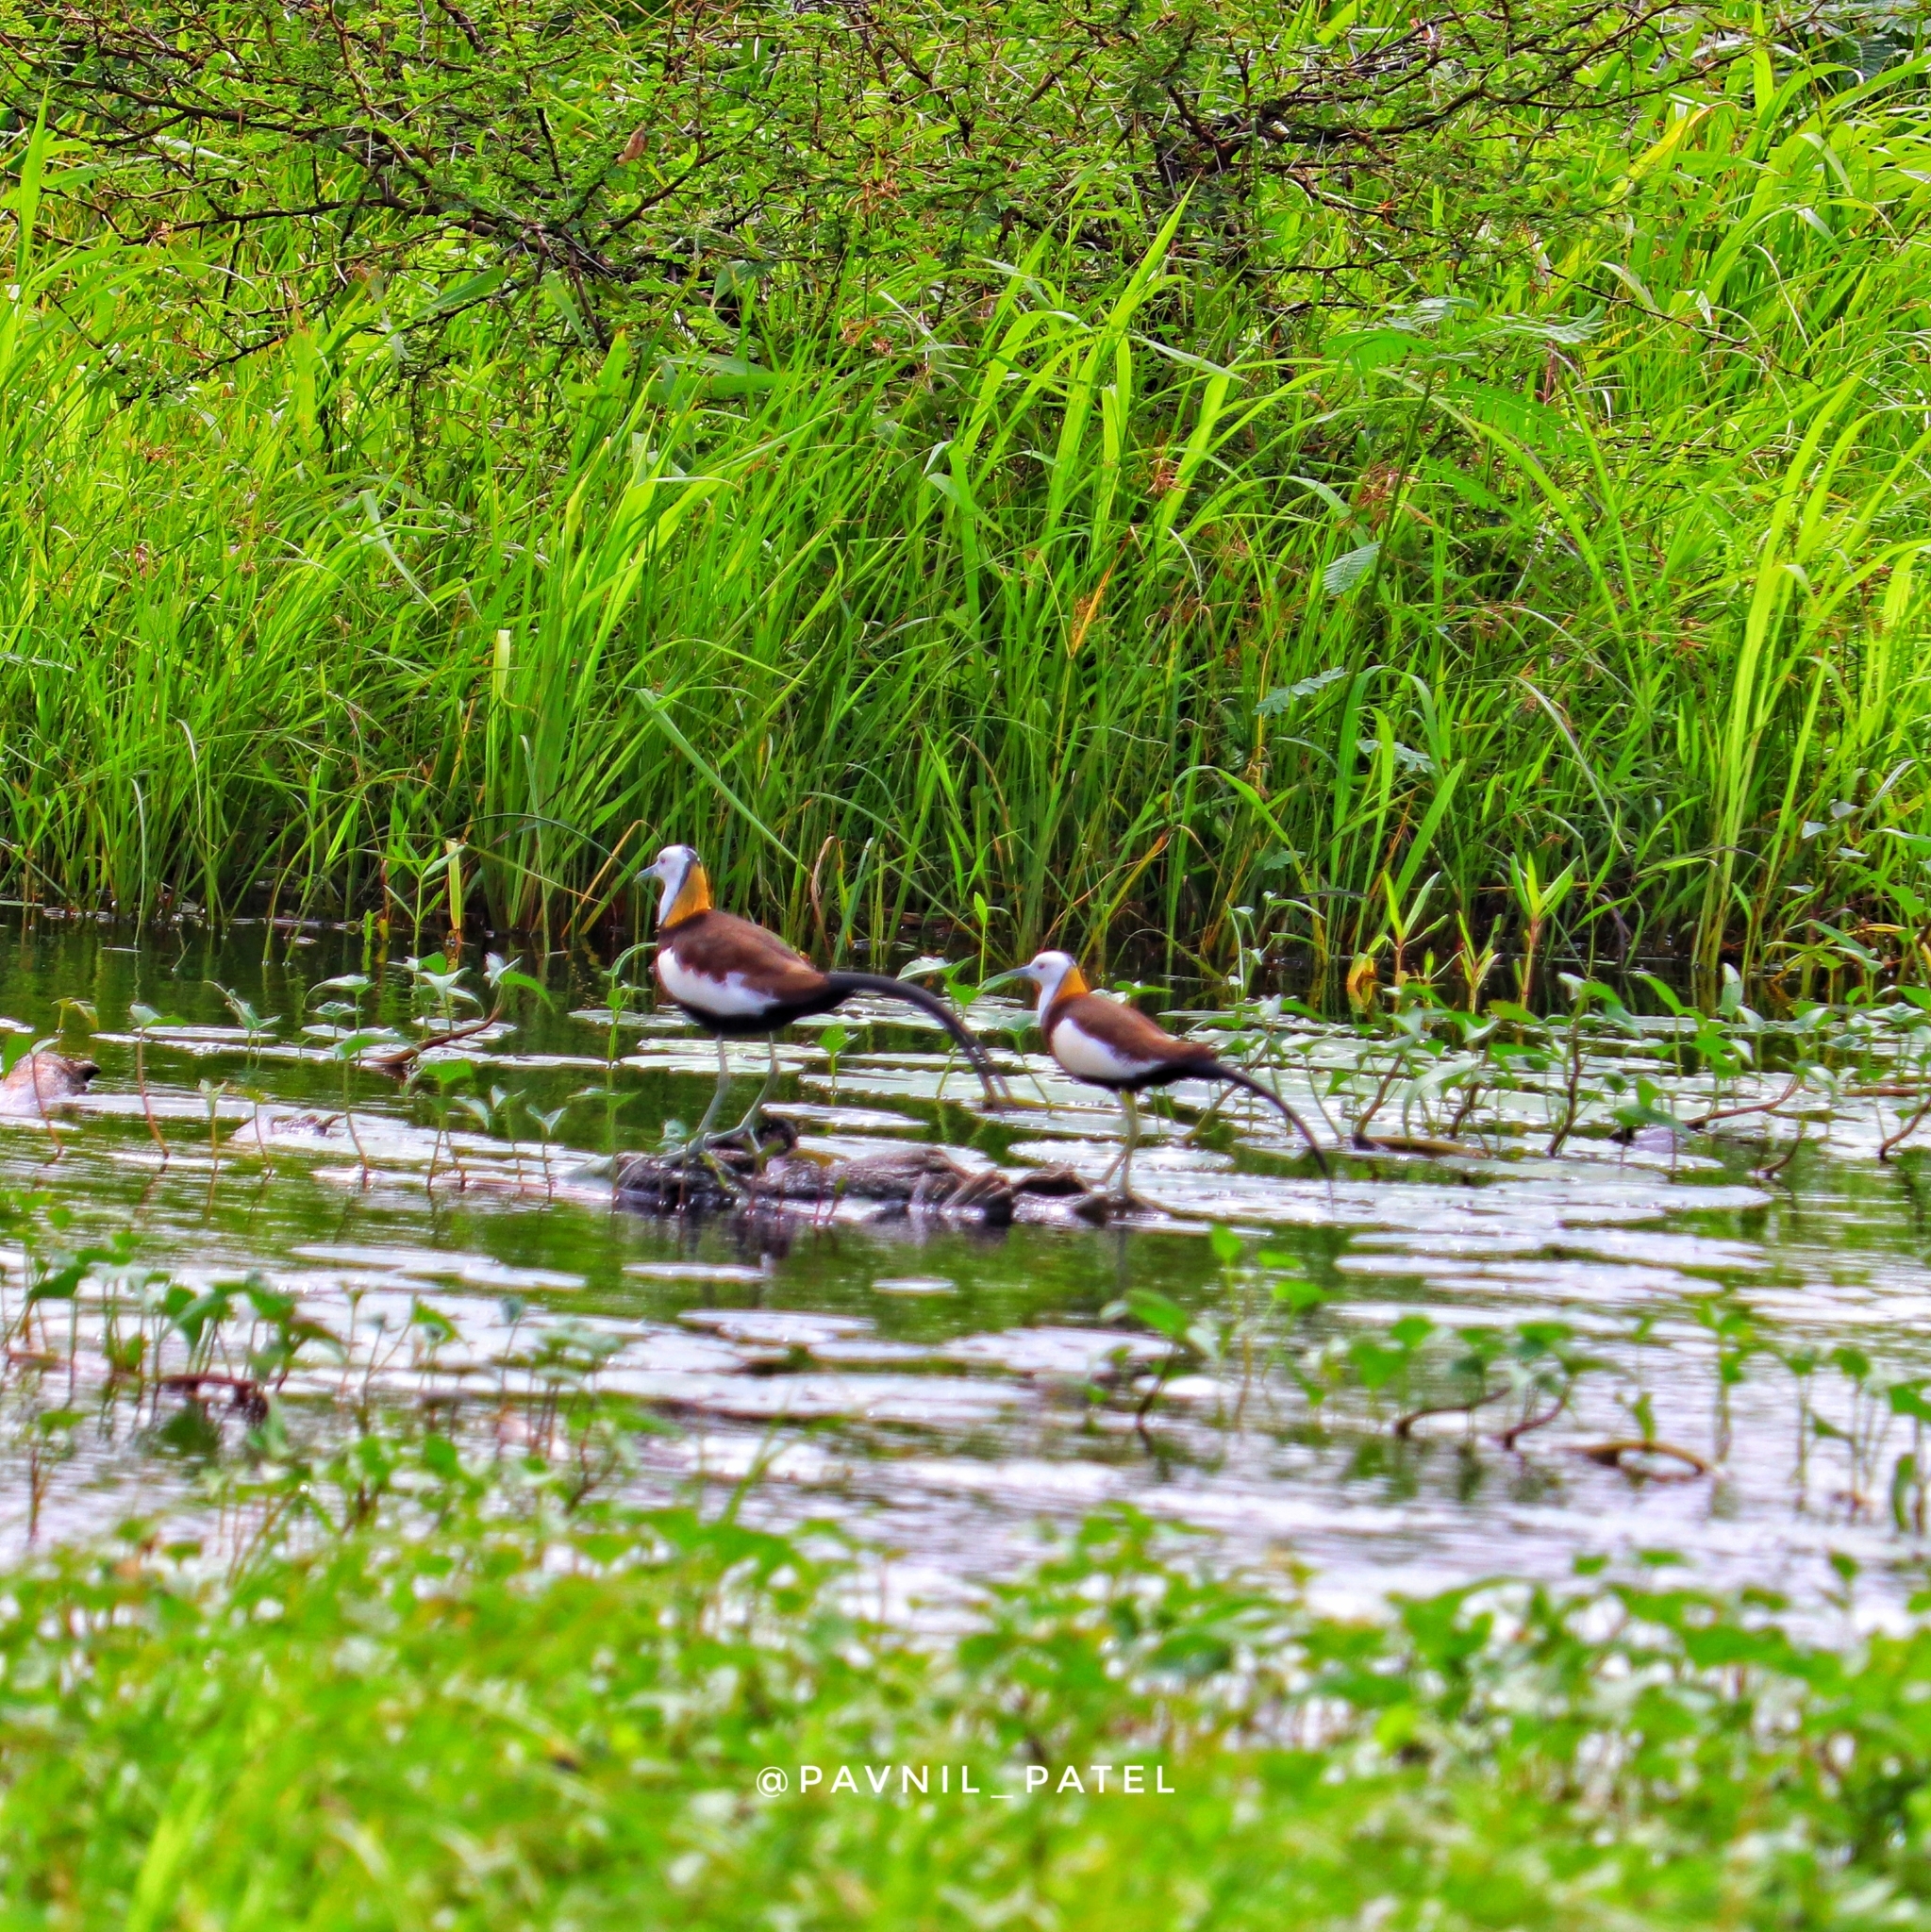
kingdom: Animalia
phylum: Chordata
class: Aves
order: Charadriiformes
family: Jacanidae
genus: Hydrophasianus
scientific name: Hydrophasianus chirurgus
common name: Pheasant-tailed jacana
